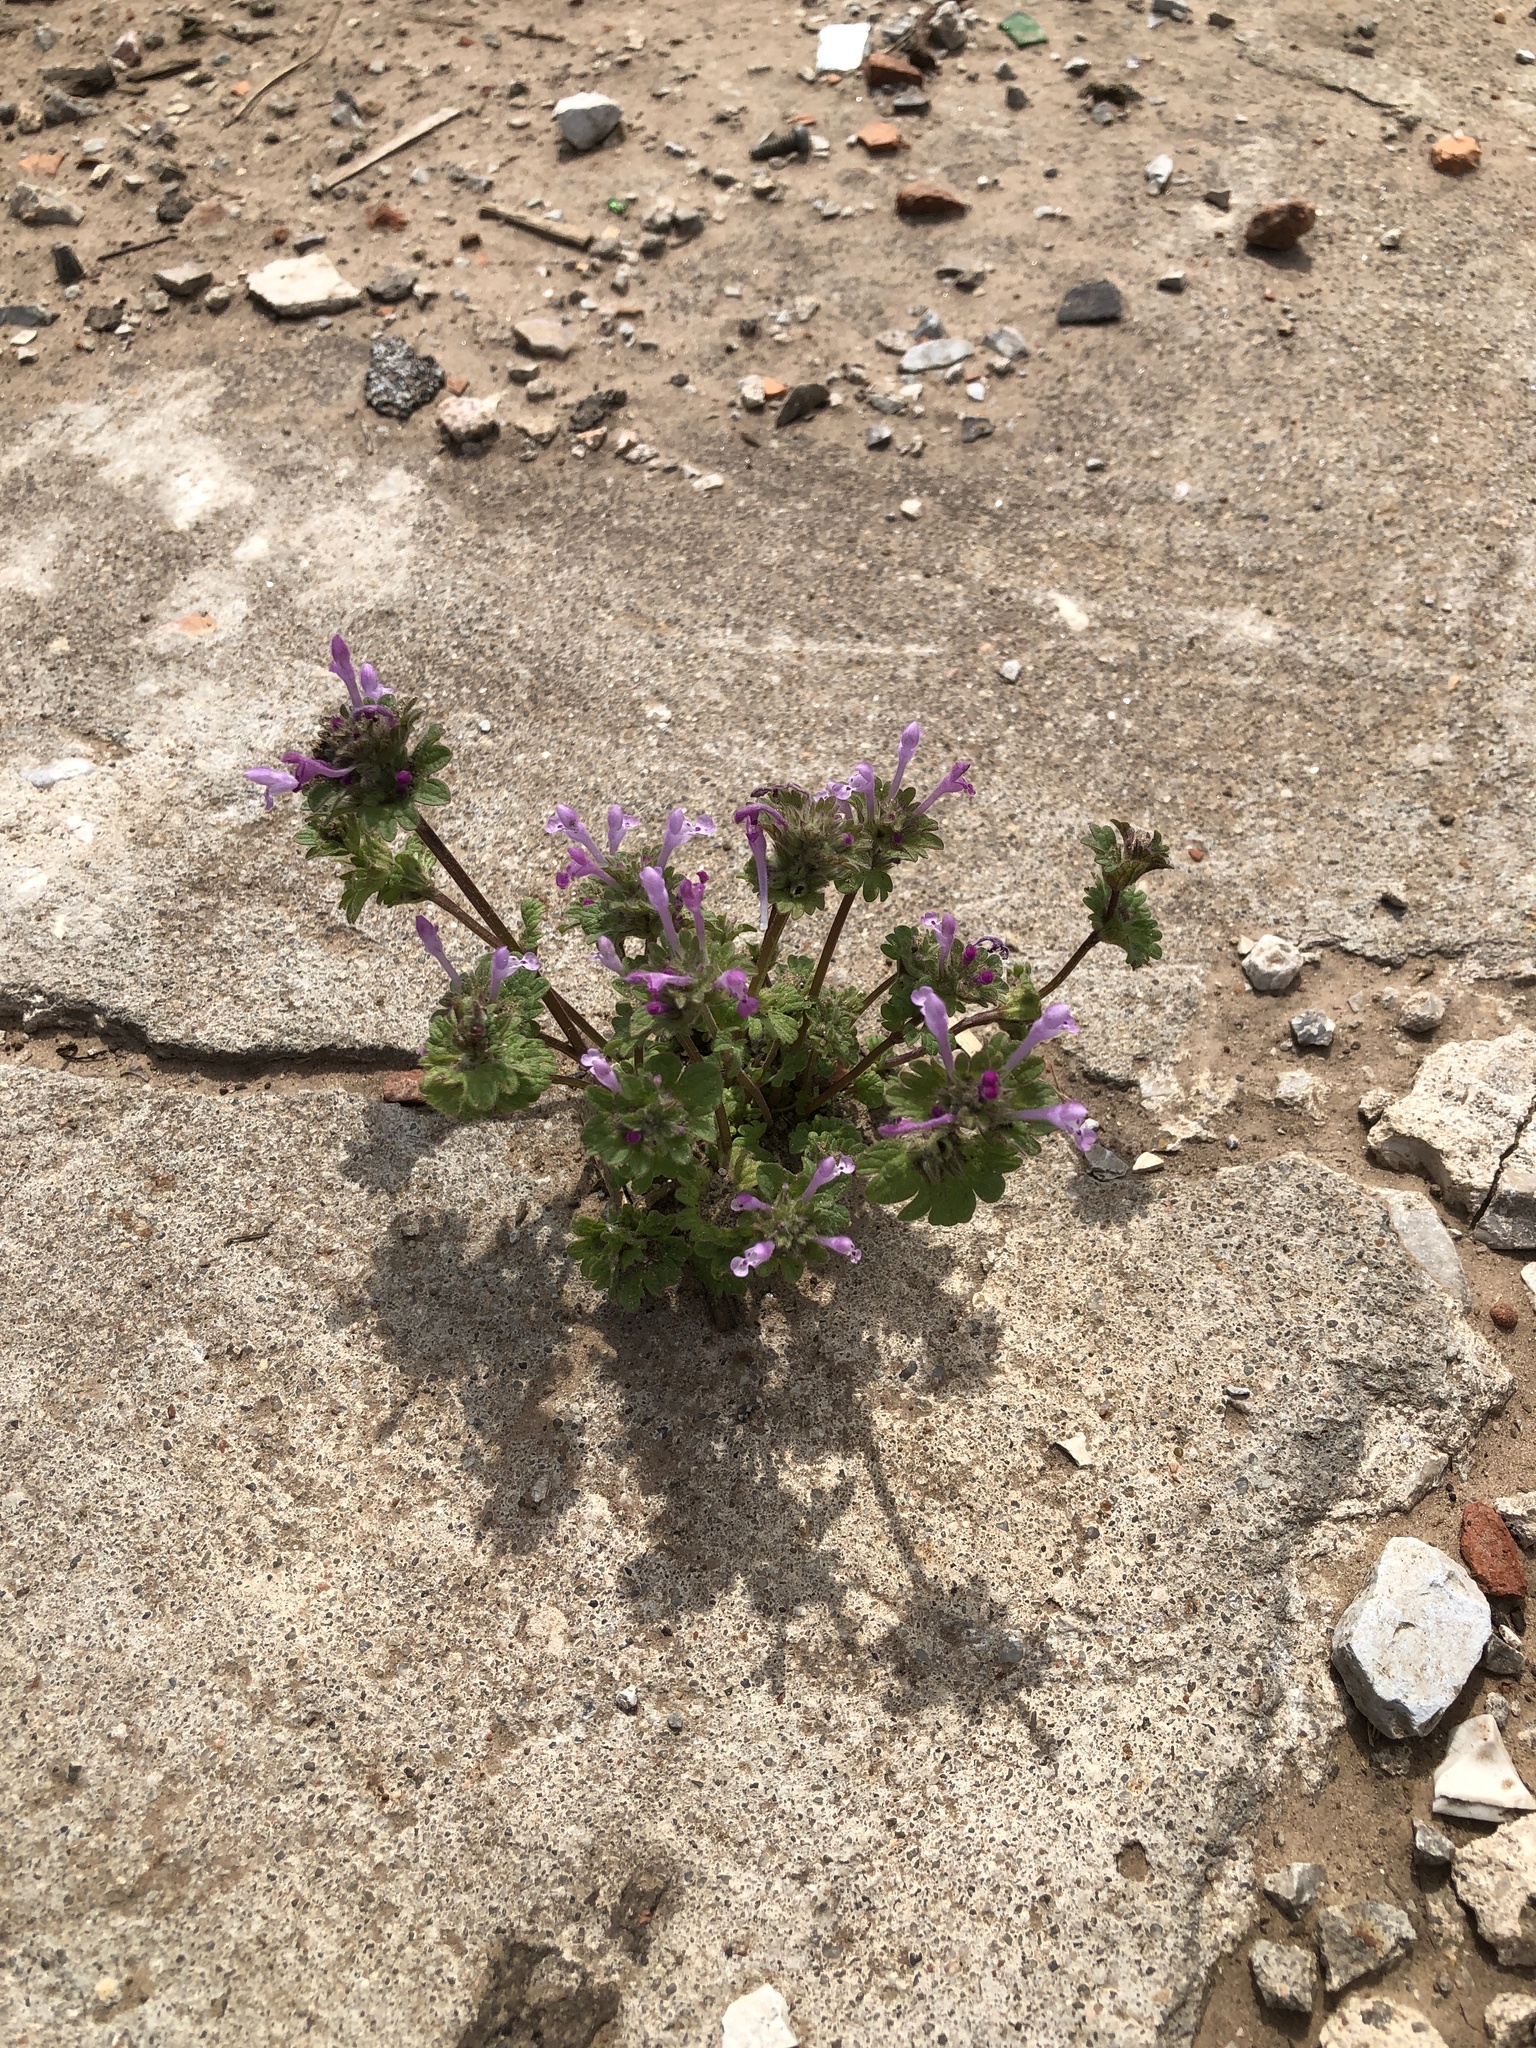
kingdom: Plantae
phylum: Tracheophyta
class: Magnoliopsida
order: Lamiales
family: Lamiaceae
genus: Lamium
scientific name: Lamium amplexicaule
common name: Henbit dead-nettle
